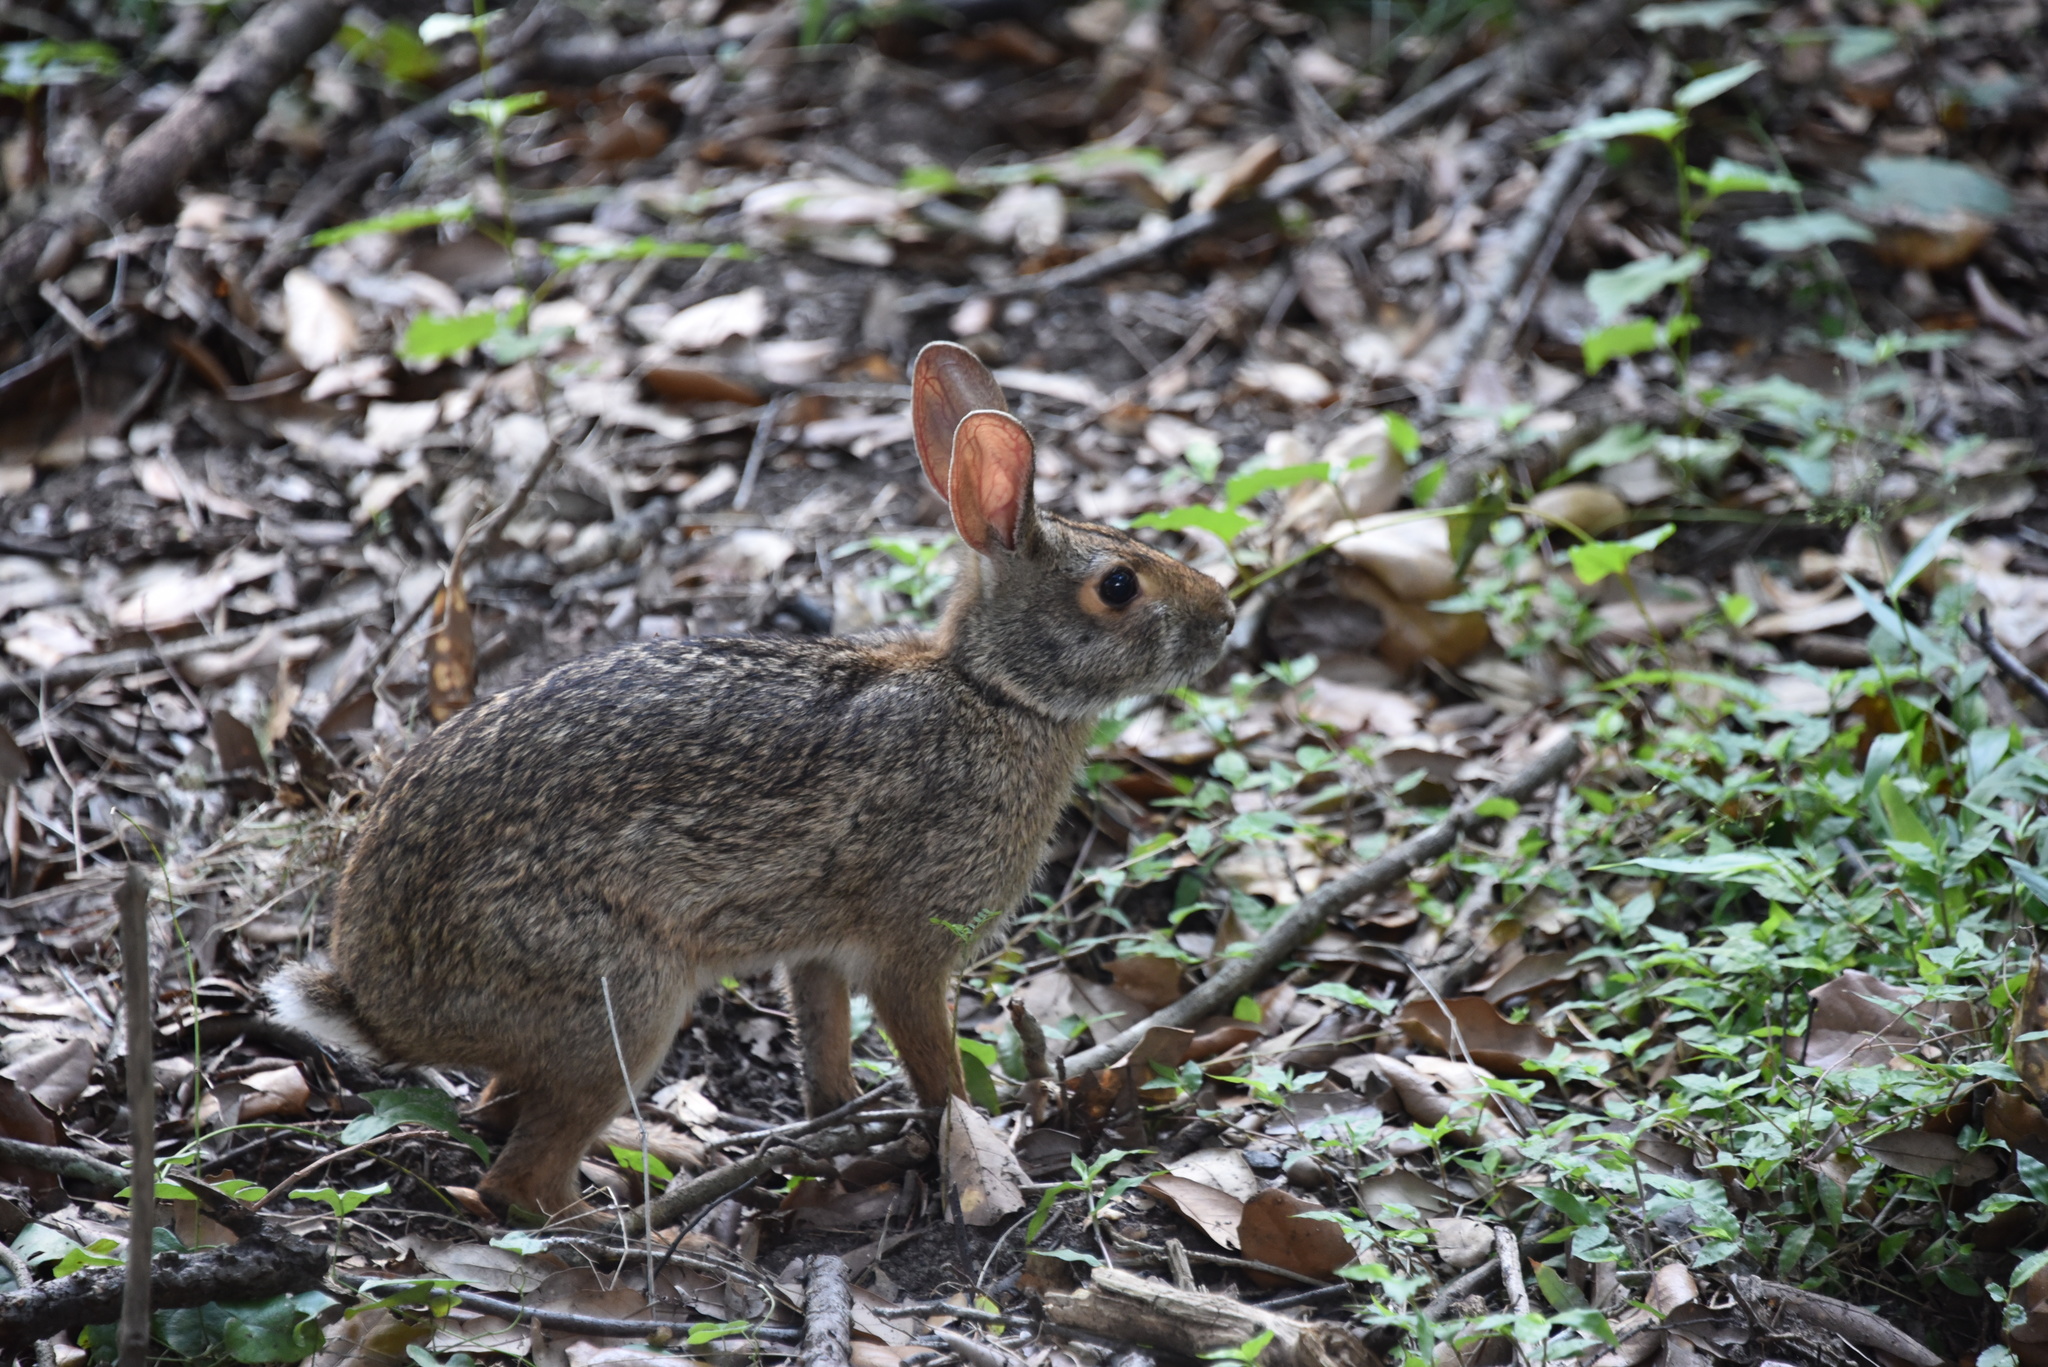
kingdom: Animalia
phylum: Chordata
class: Mammalia
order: Lagomorpha
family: Leporidae
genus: Sylvilagus
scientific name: Sylvilagus aquaticus
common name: Swamp rabbit
